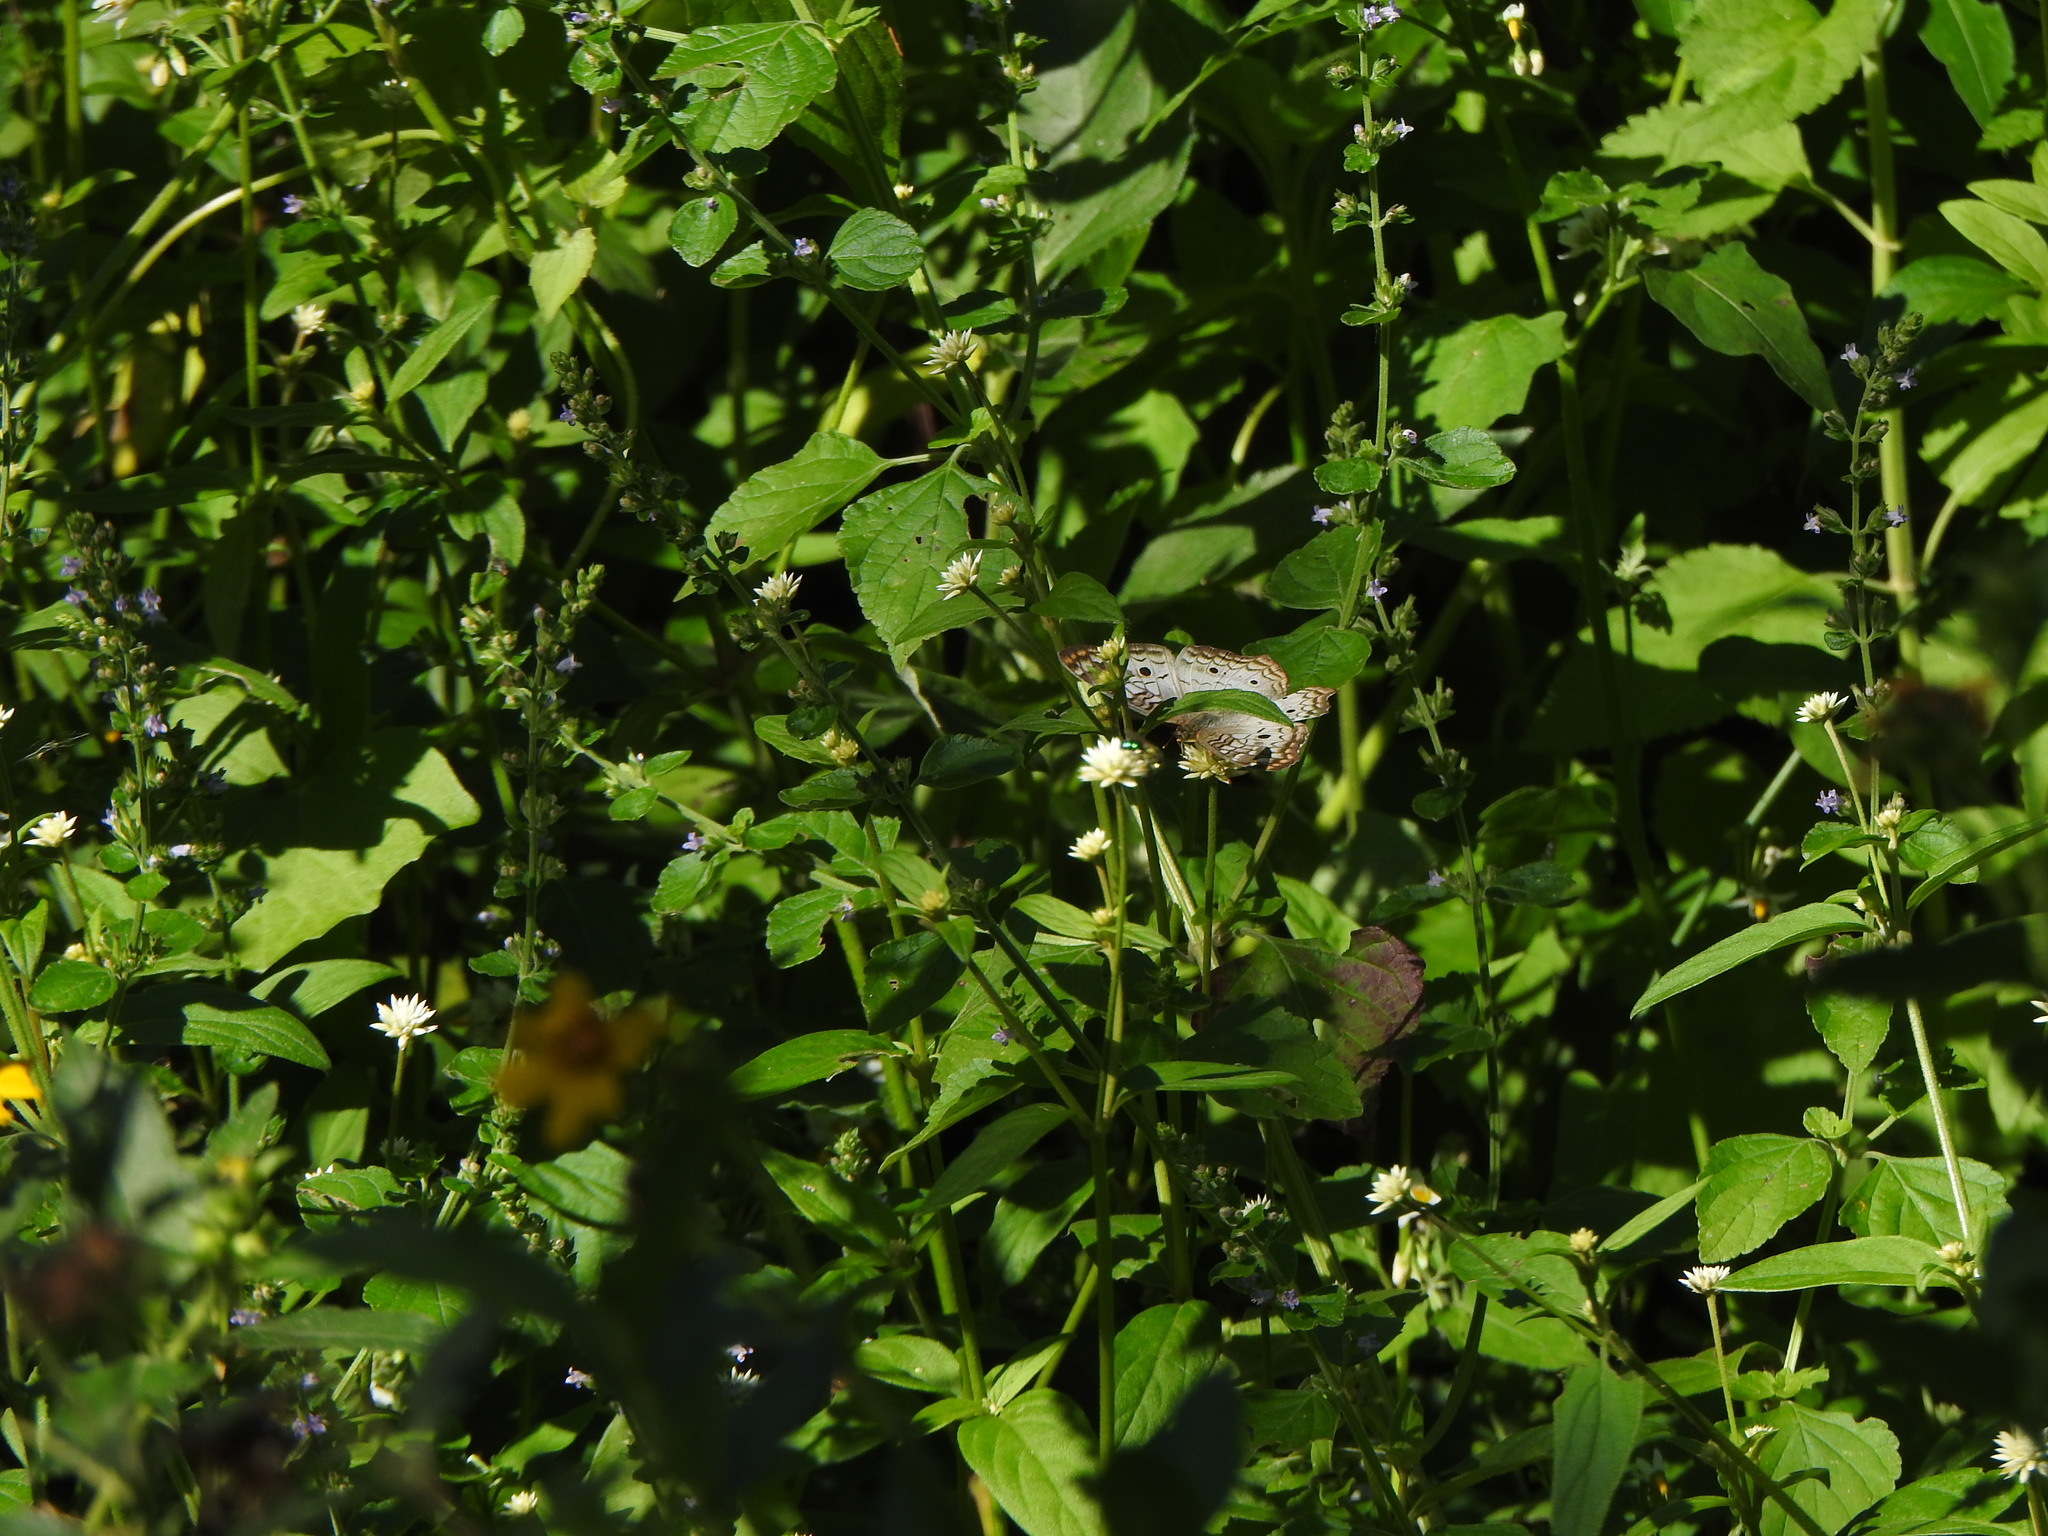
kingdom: Animalia
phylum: Arthropoda
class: Insecta
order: Lepidoptera
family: Nymphalidae
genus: Anartia
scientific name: Anartia jatrophae
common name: White peacock
